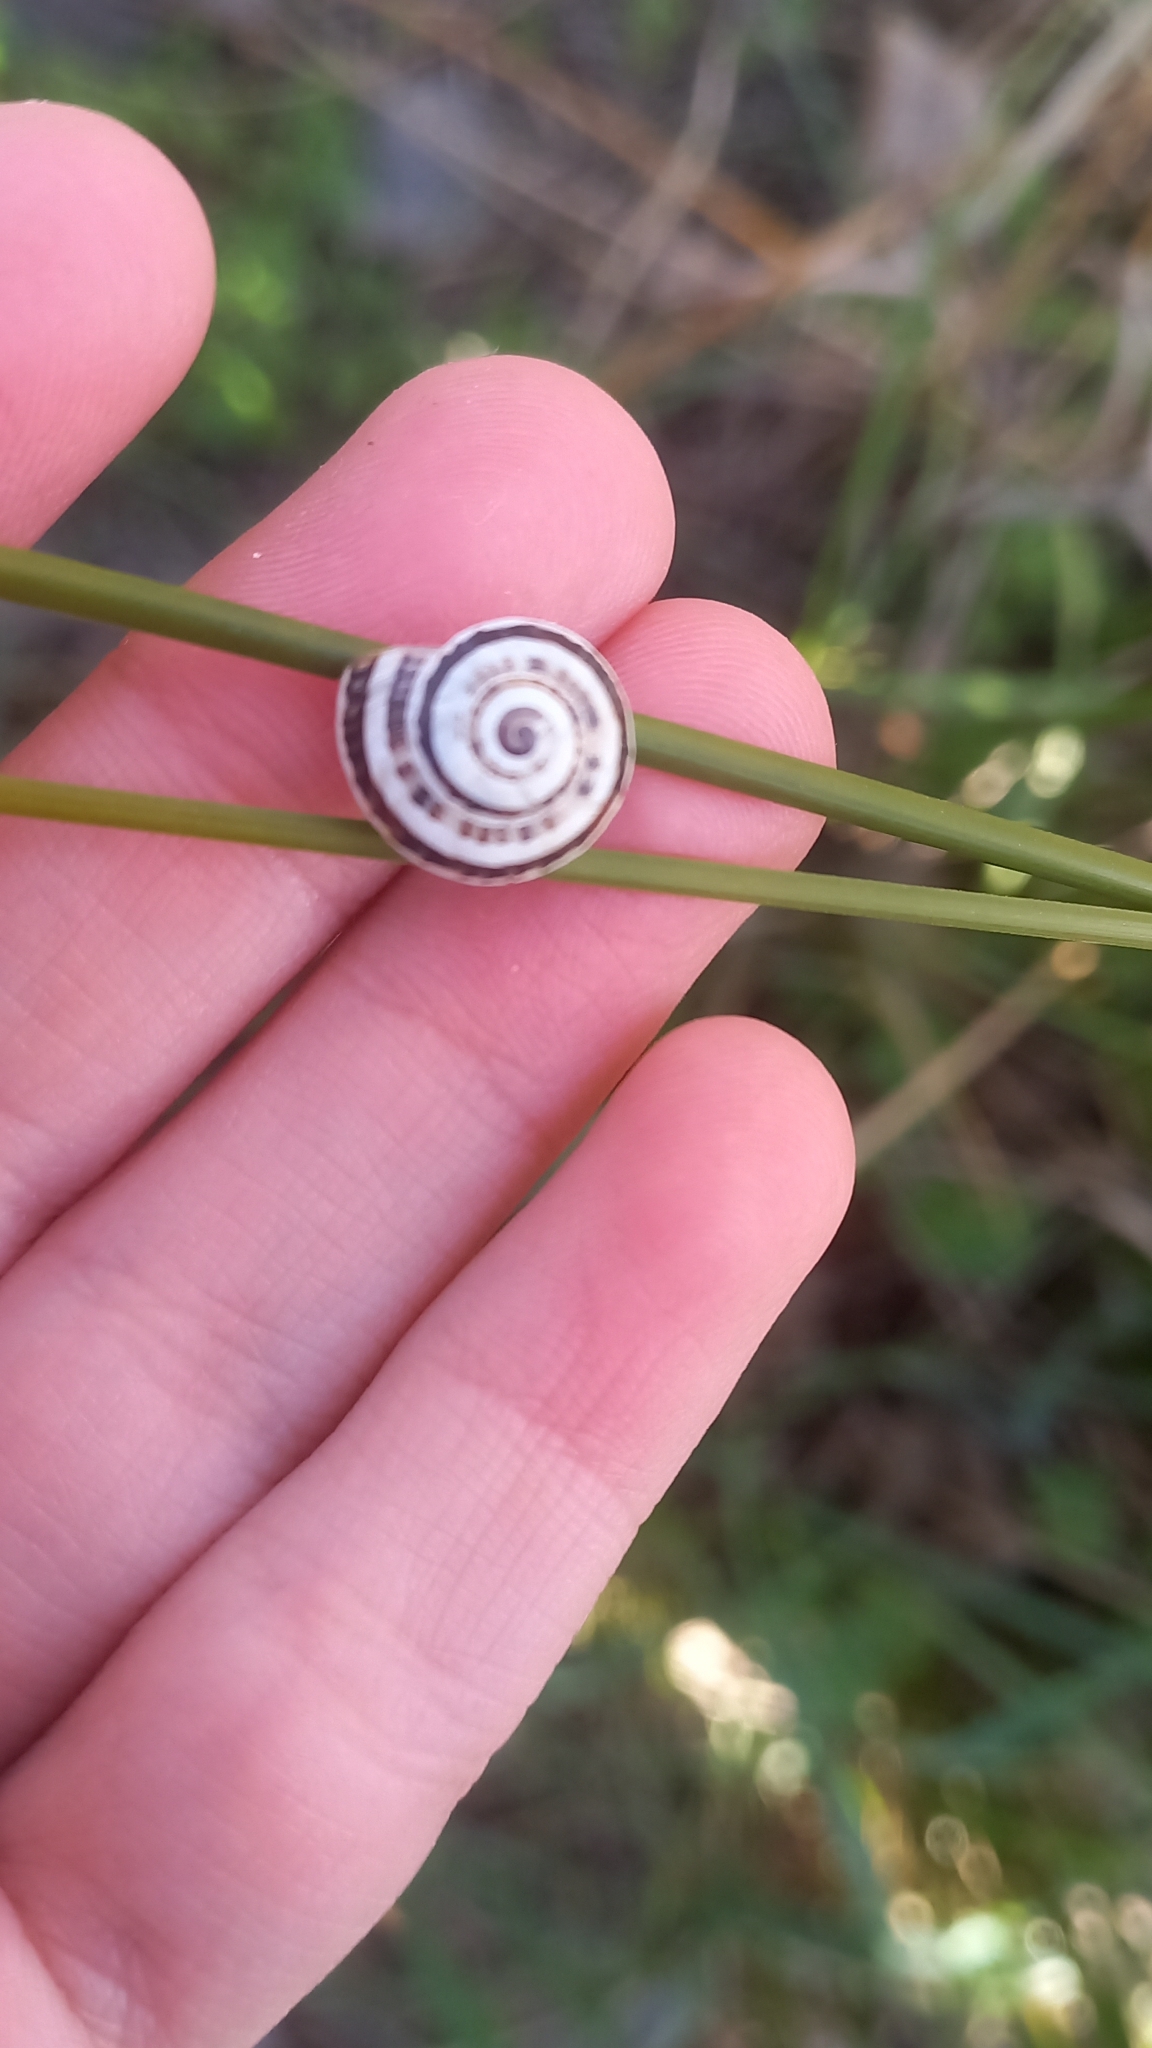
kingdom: Animalia
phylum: Mollusca
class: Gastropoda
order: Stylommatophora
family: Helicidae
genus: Theba
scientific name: Theba pisana
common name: White snail
